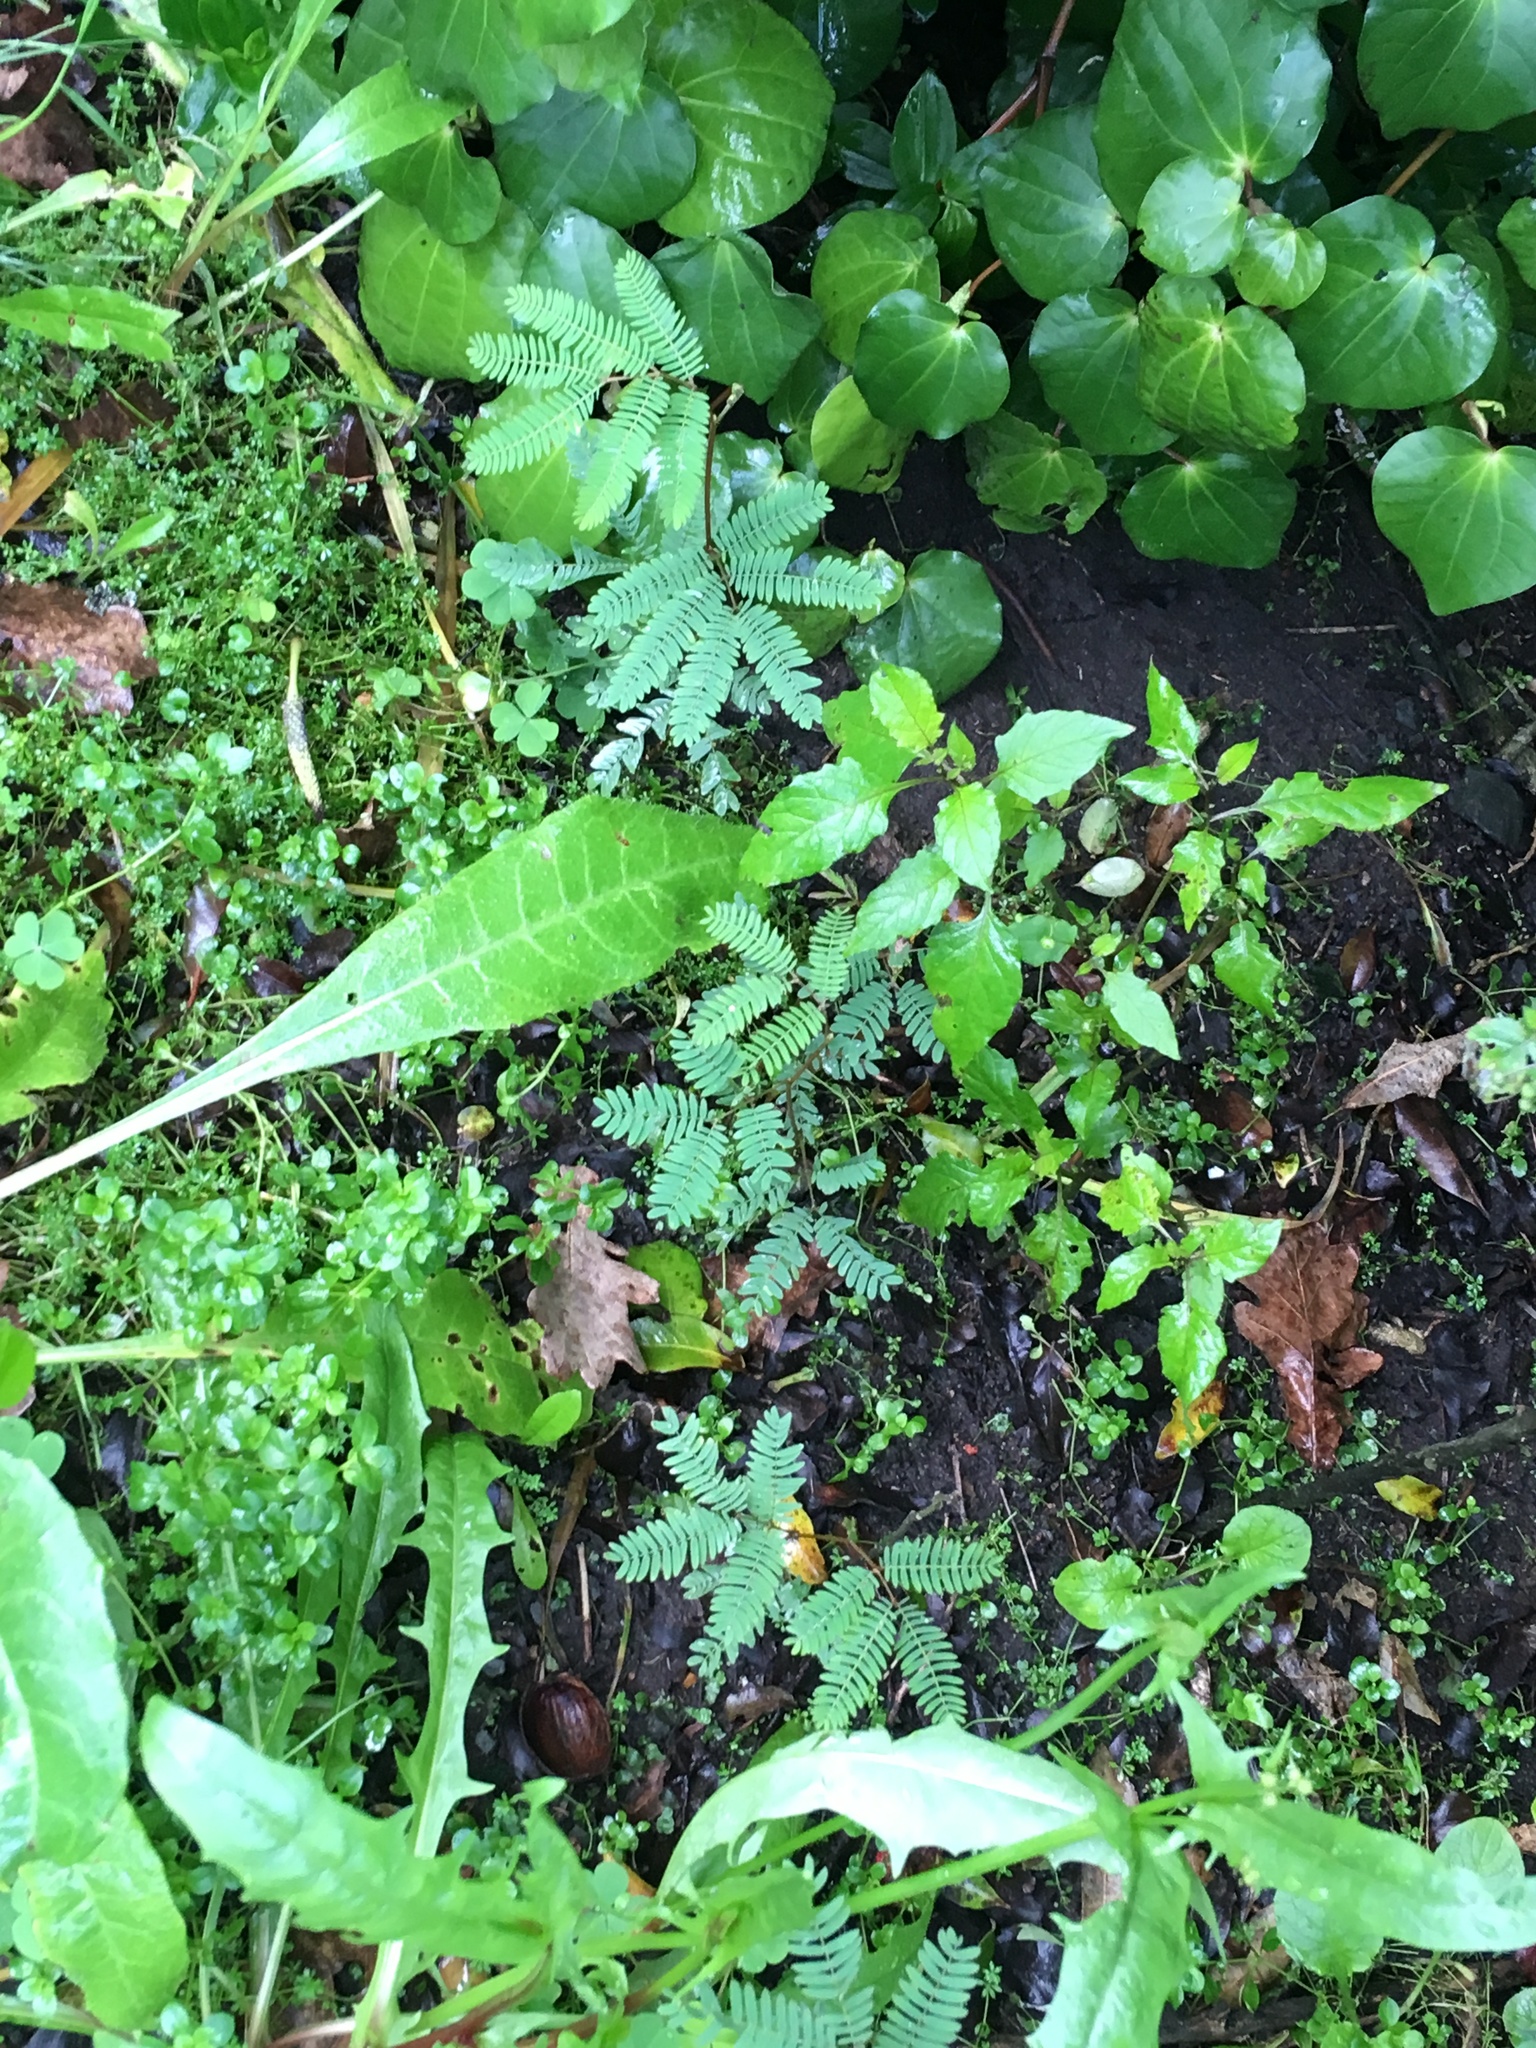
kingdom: Plantae
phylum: Tracheophyta
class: Magnoliopsida
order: Fabales
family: Fabaceae
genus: Paraserianthes
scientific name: Paraserianthes lophantha
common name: Plume albizia
